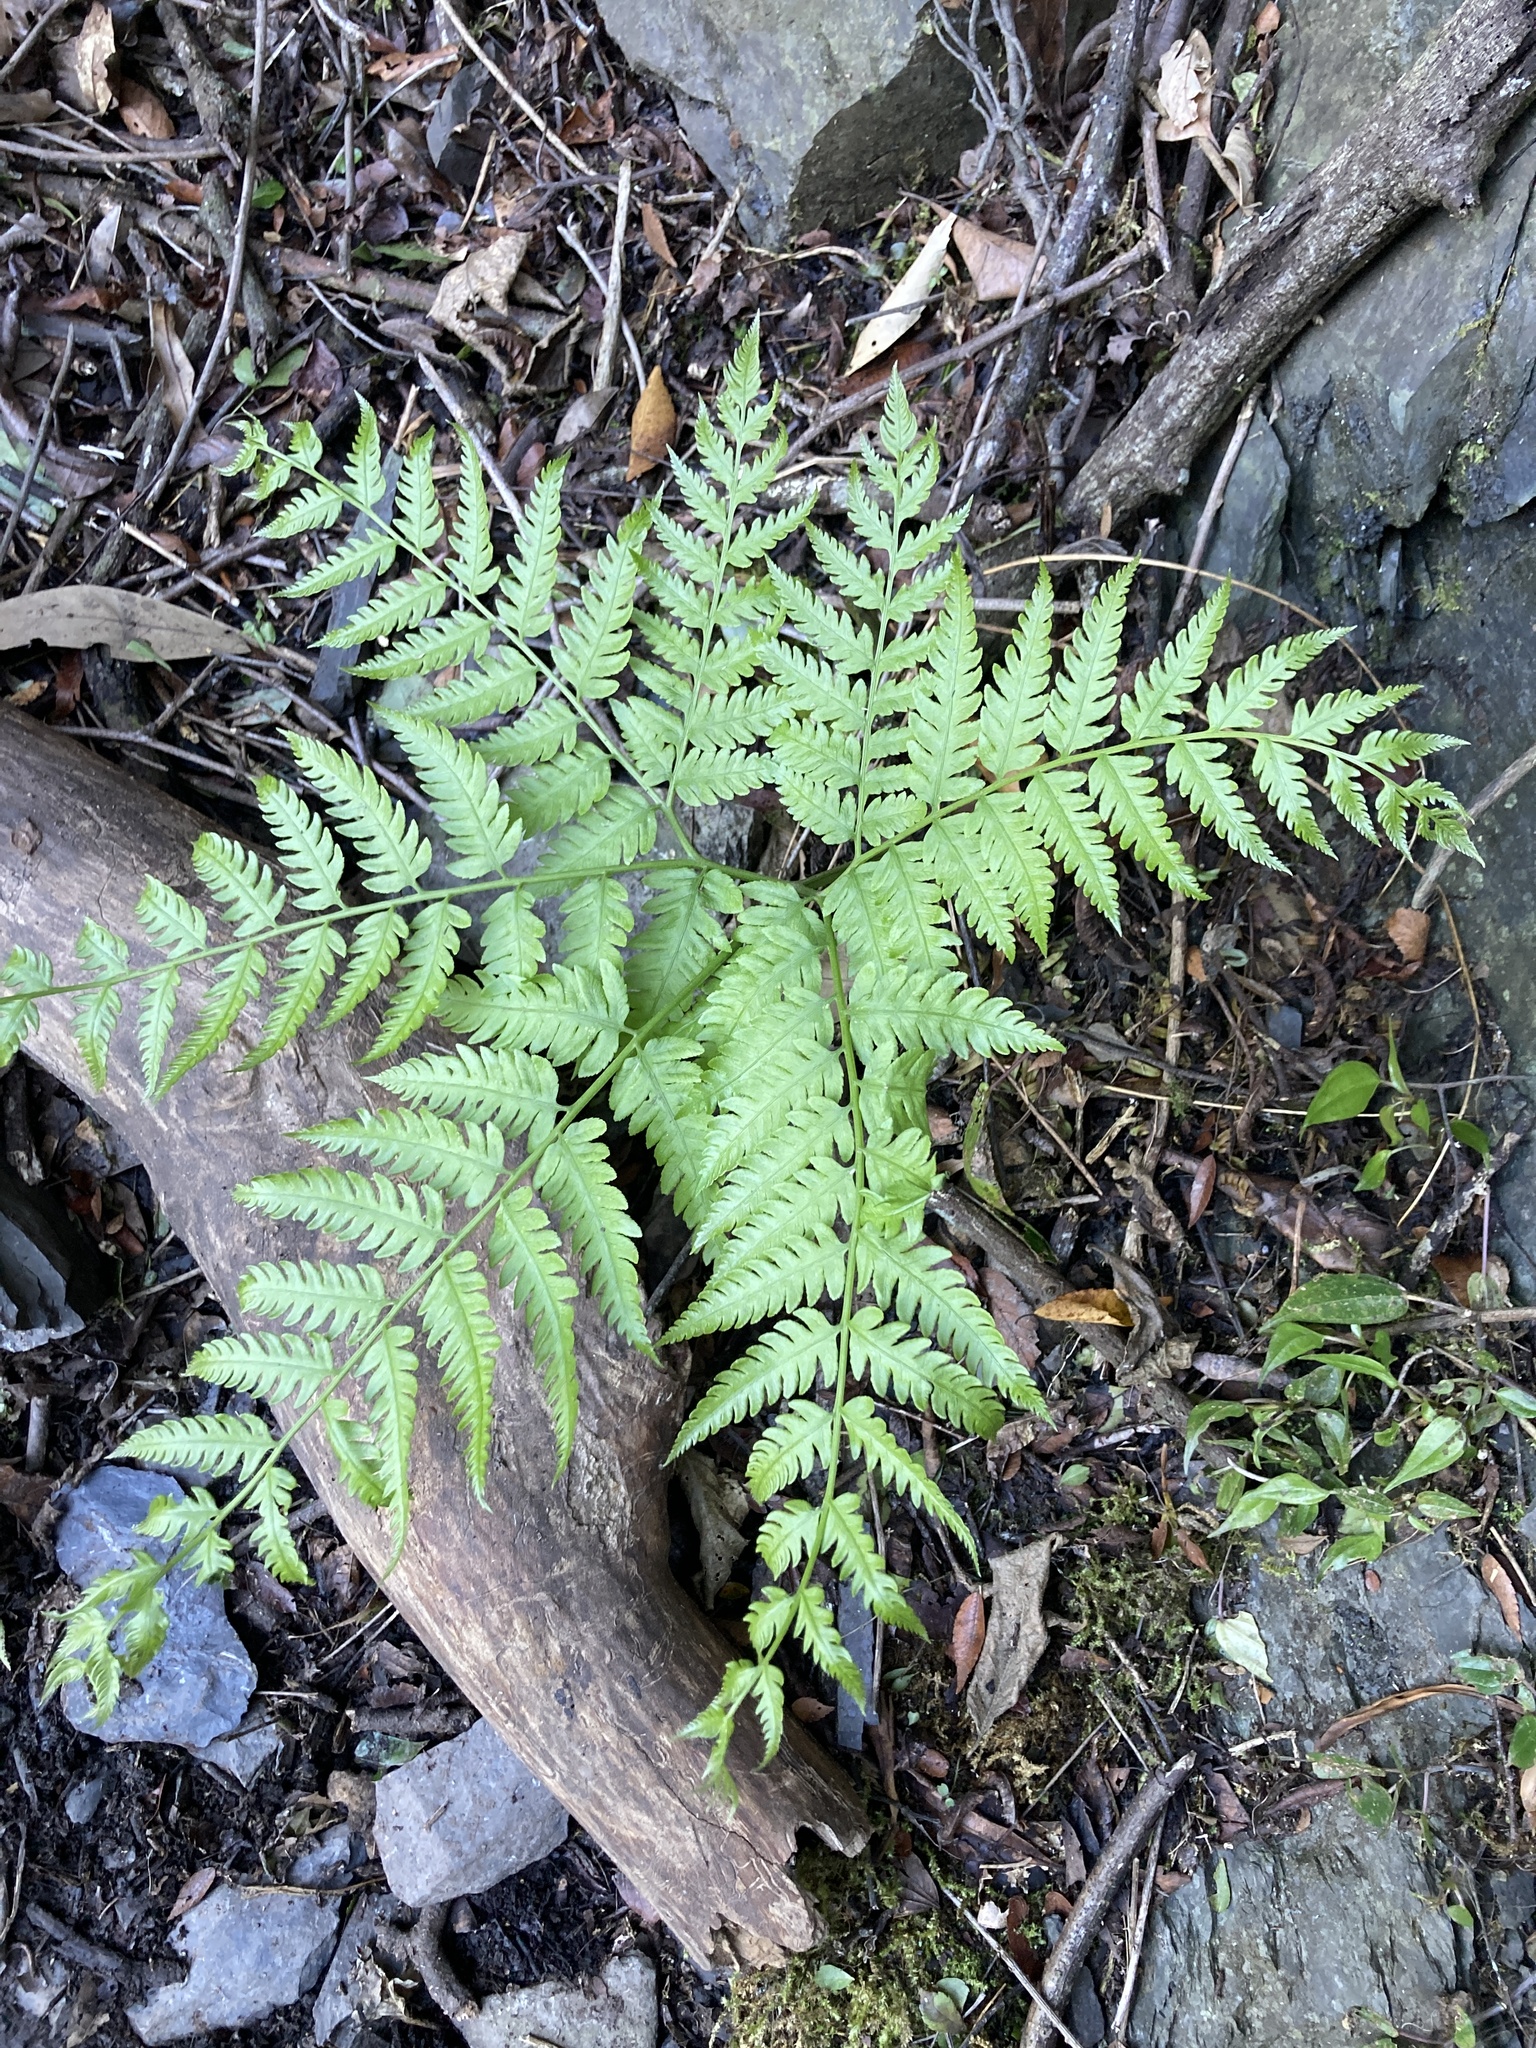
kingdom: Plantae
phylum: Tracheophyta
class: Polypodiopsida
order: Polypodiales
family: Pteridaceae
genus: Pteris
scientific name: Pteris wallichiana
